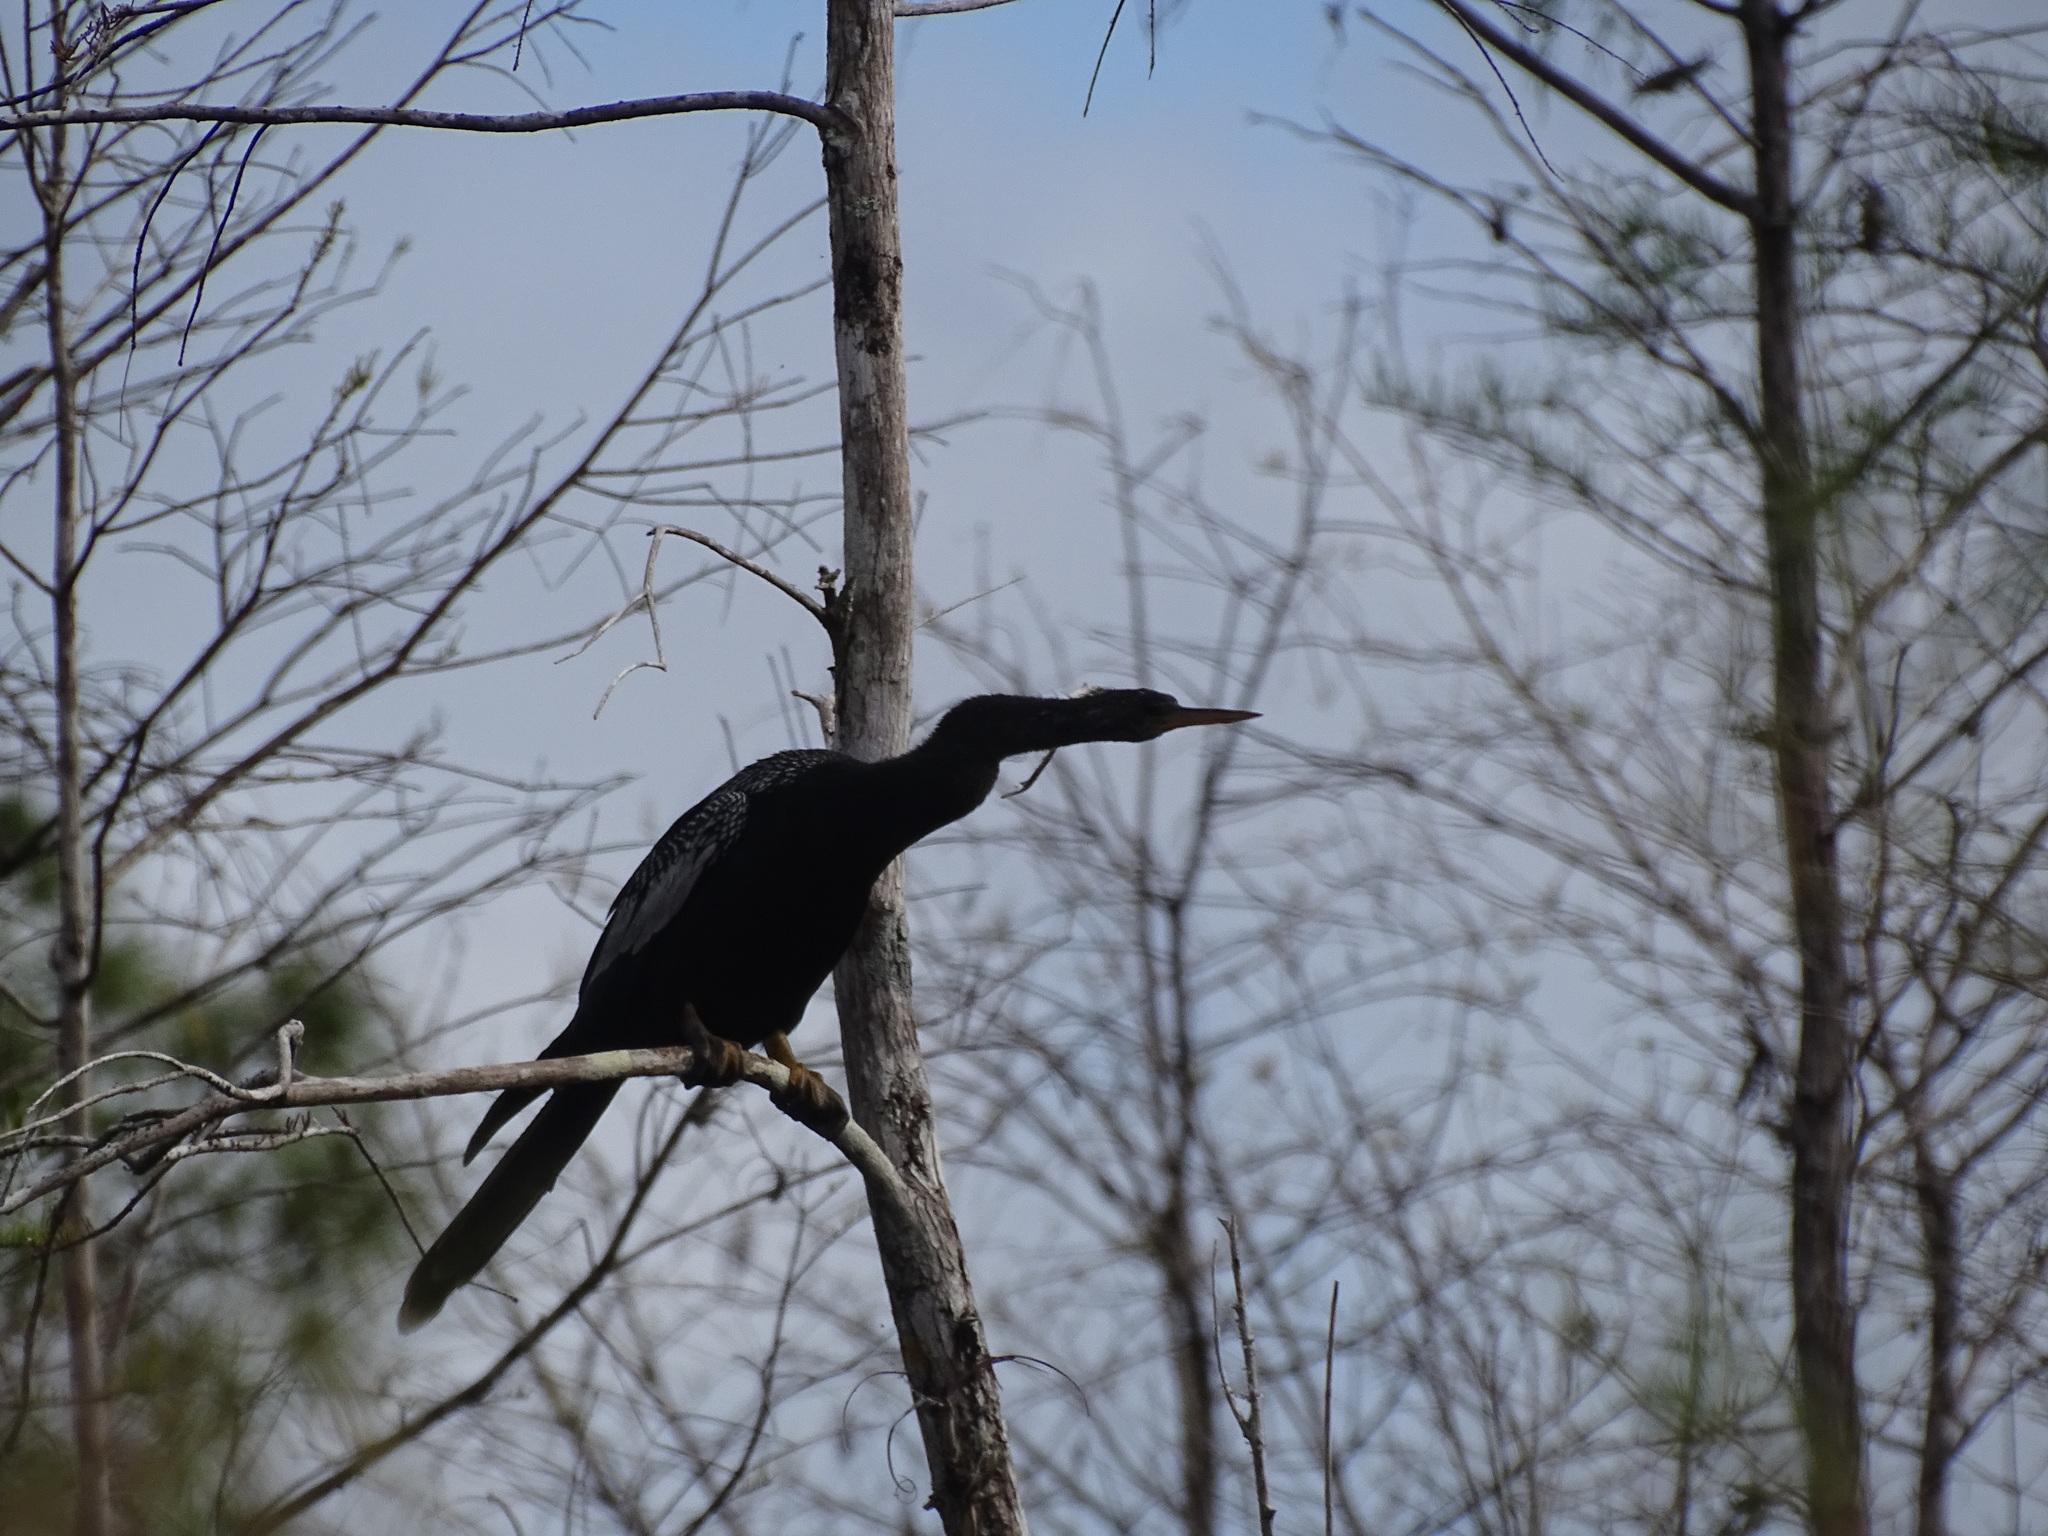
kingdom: Animalia
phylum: Chordata
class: Aves
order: Suliformes
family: Anhingidae
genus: Anhinga
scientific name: Anhinga anhinga
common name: Anhinga
